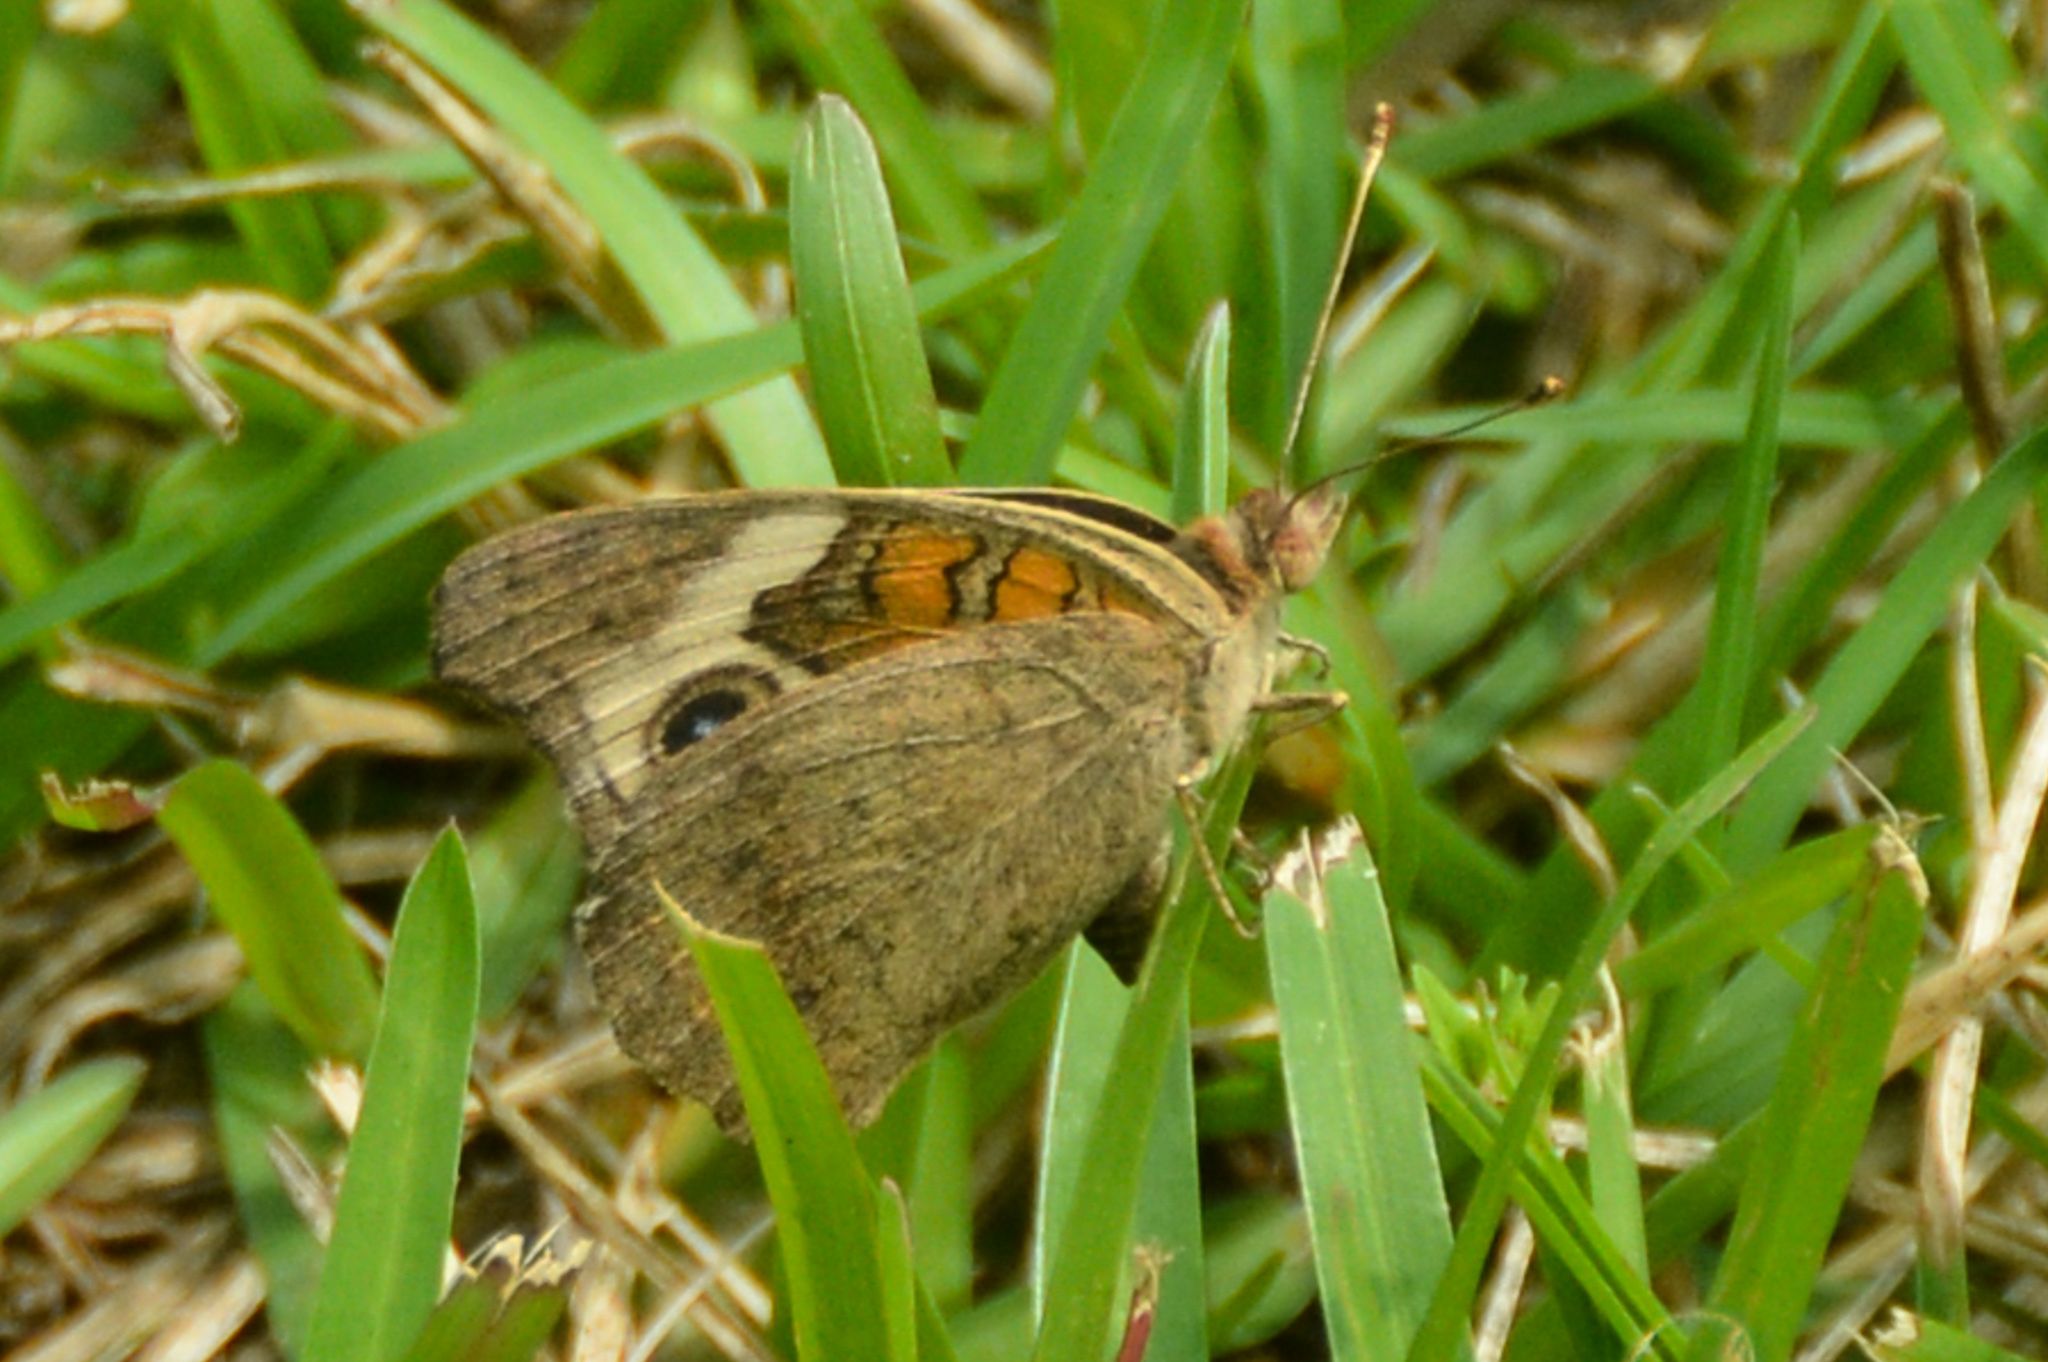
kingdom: Animalia
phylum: Arthropoda
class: Insecta
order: Lepidoptera
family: Nymphalidae
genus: Junonia
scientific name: Junonia coenia
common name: Common buckeye
